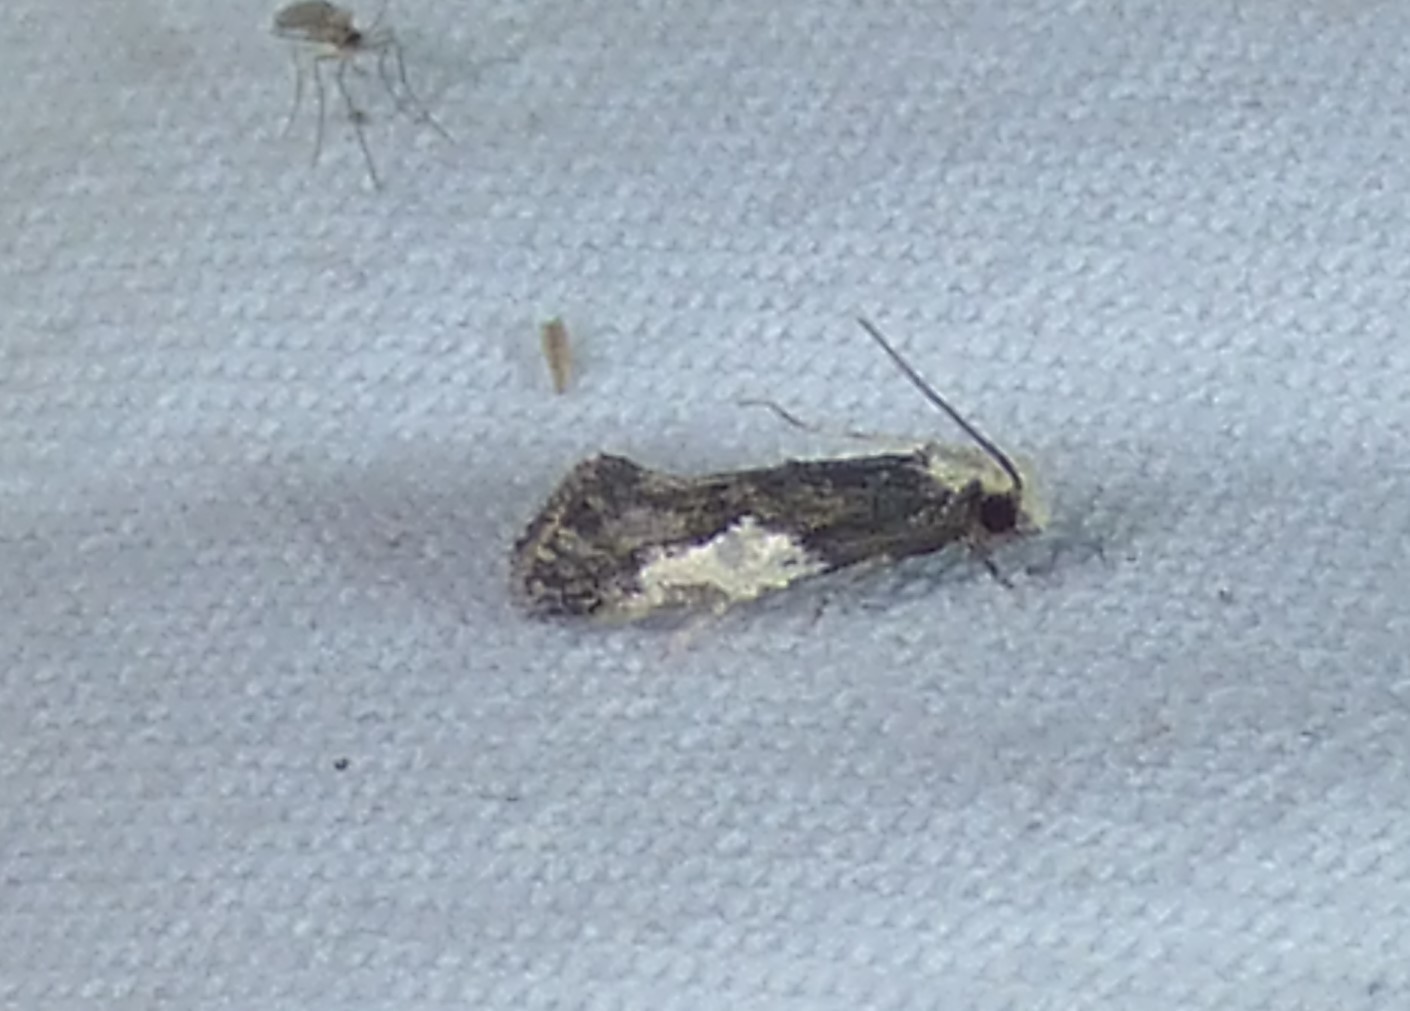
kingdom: Animalia
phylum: Arthropoda
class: Insecta
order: Lepidoptera
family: Tineidae
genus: Monopis
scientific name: Monopis longella
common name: Pavlovski's monopis moth
